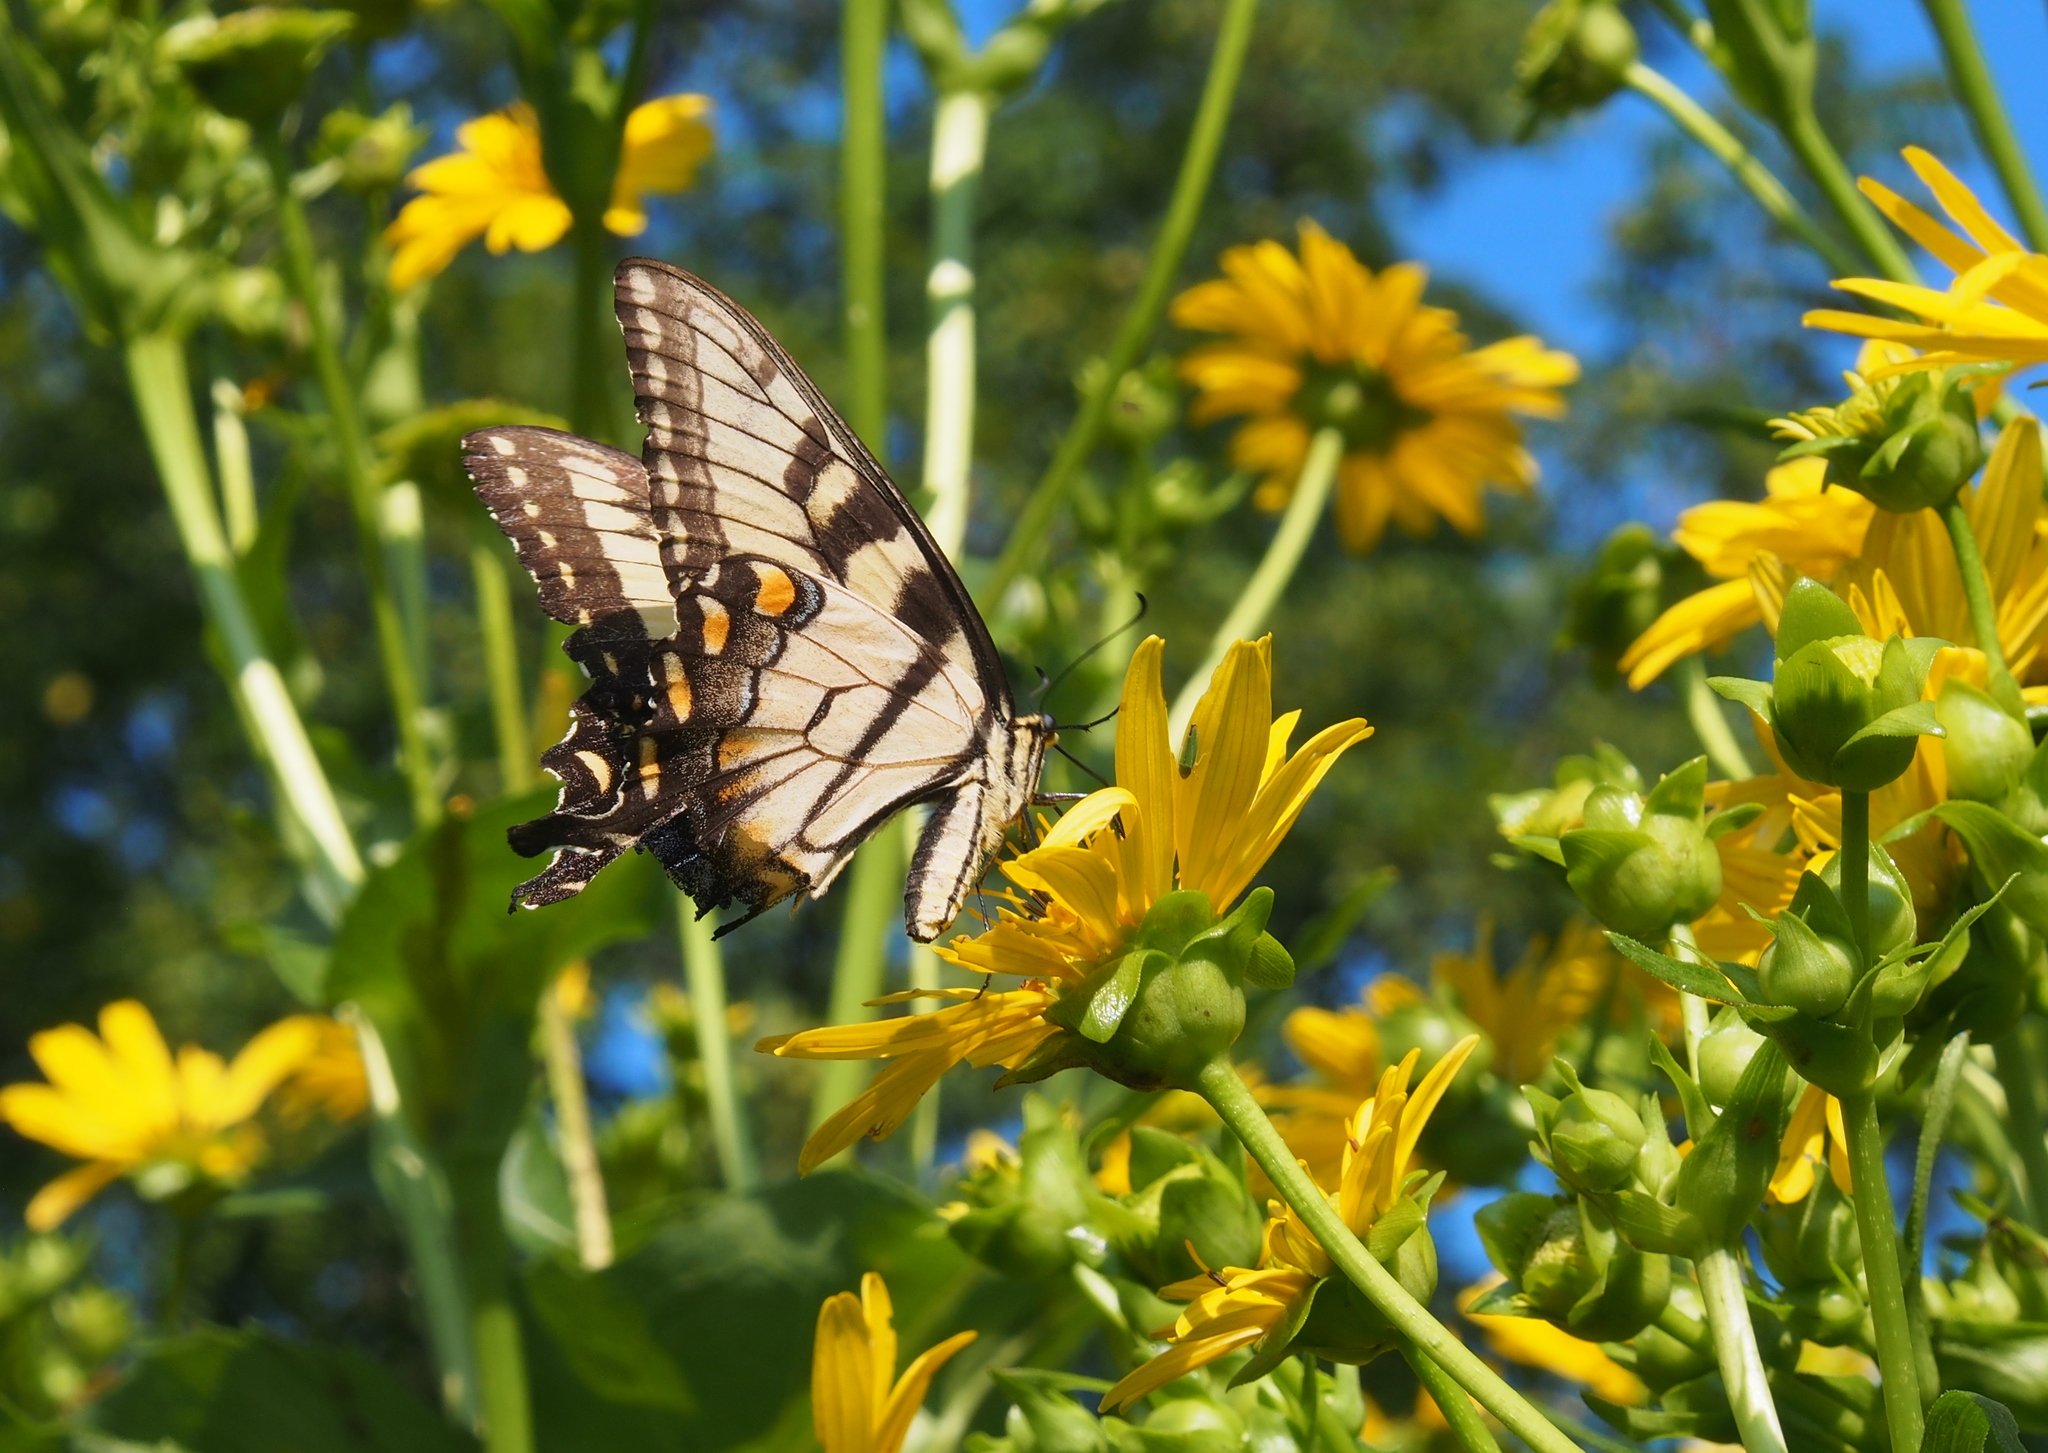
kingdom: Animalia
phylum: Arthropoda
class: Insecta
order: Lepidoptera
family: Papilionidae
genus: Papilio
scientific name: Papilio glaucus
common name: Tiger swallowtail
